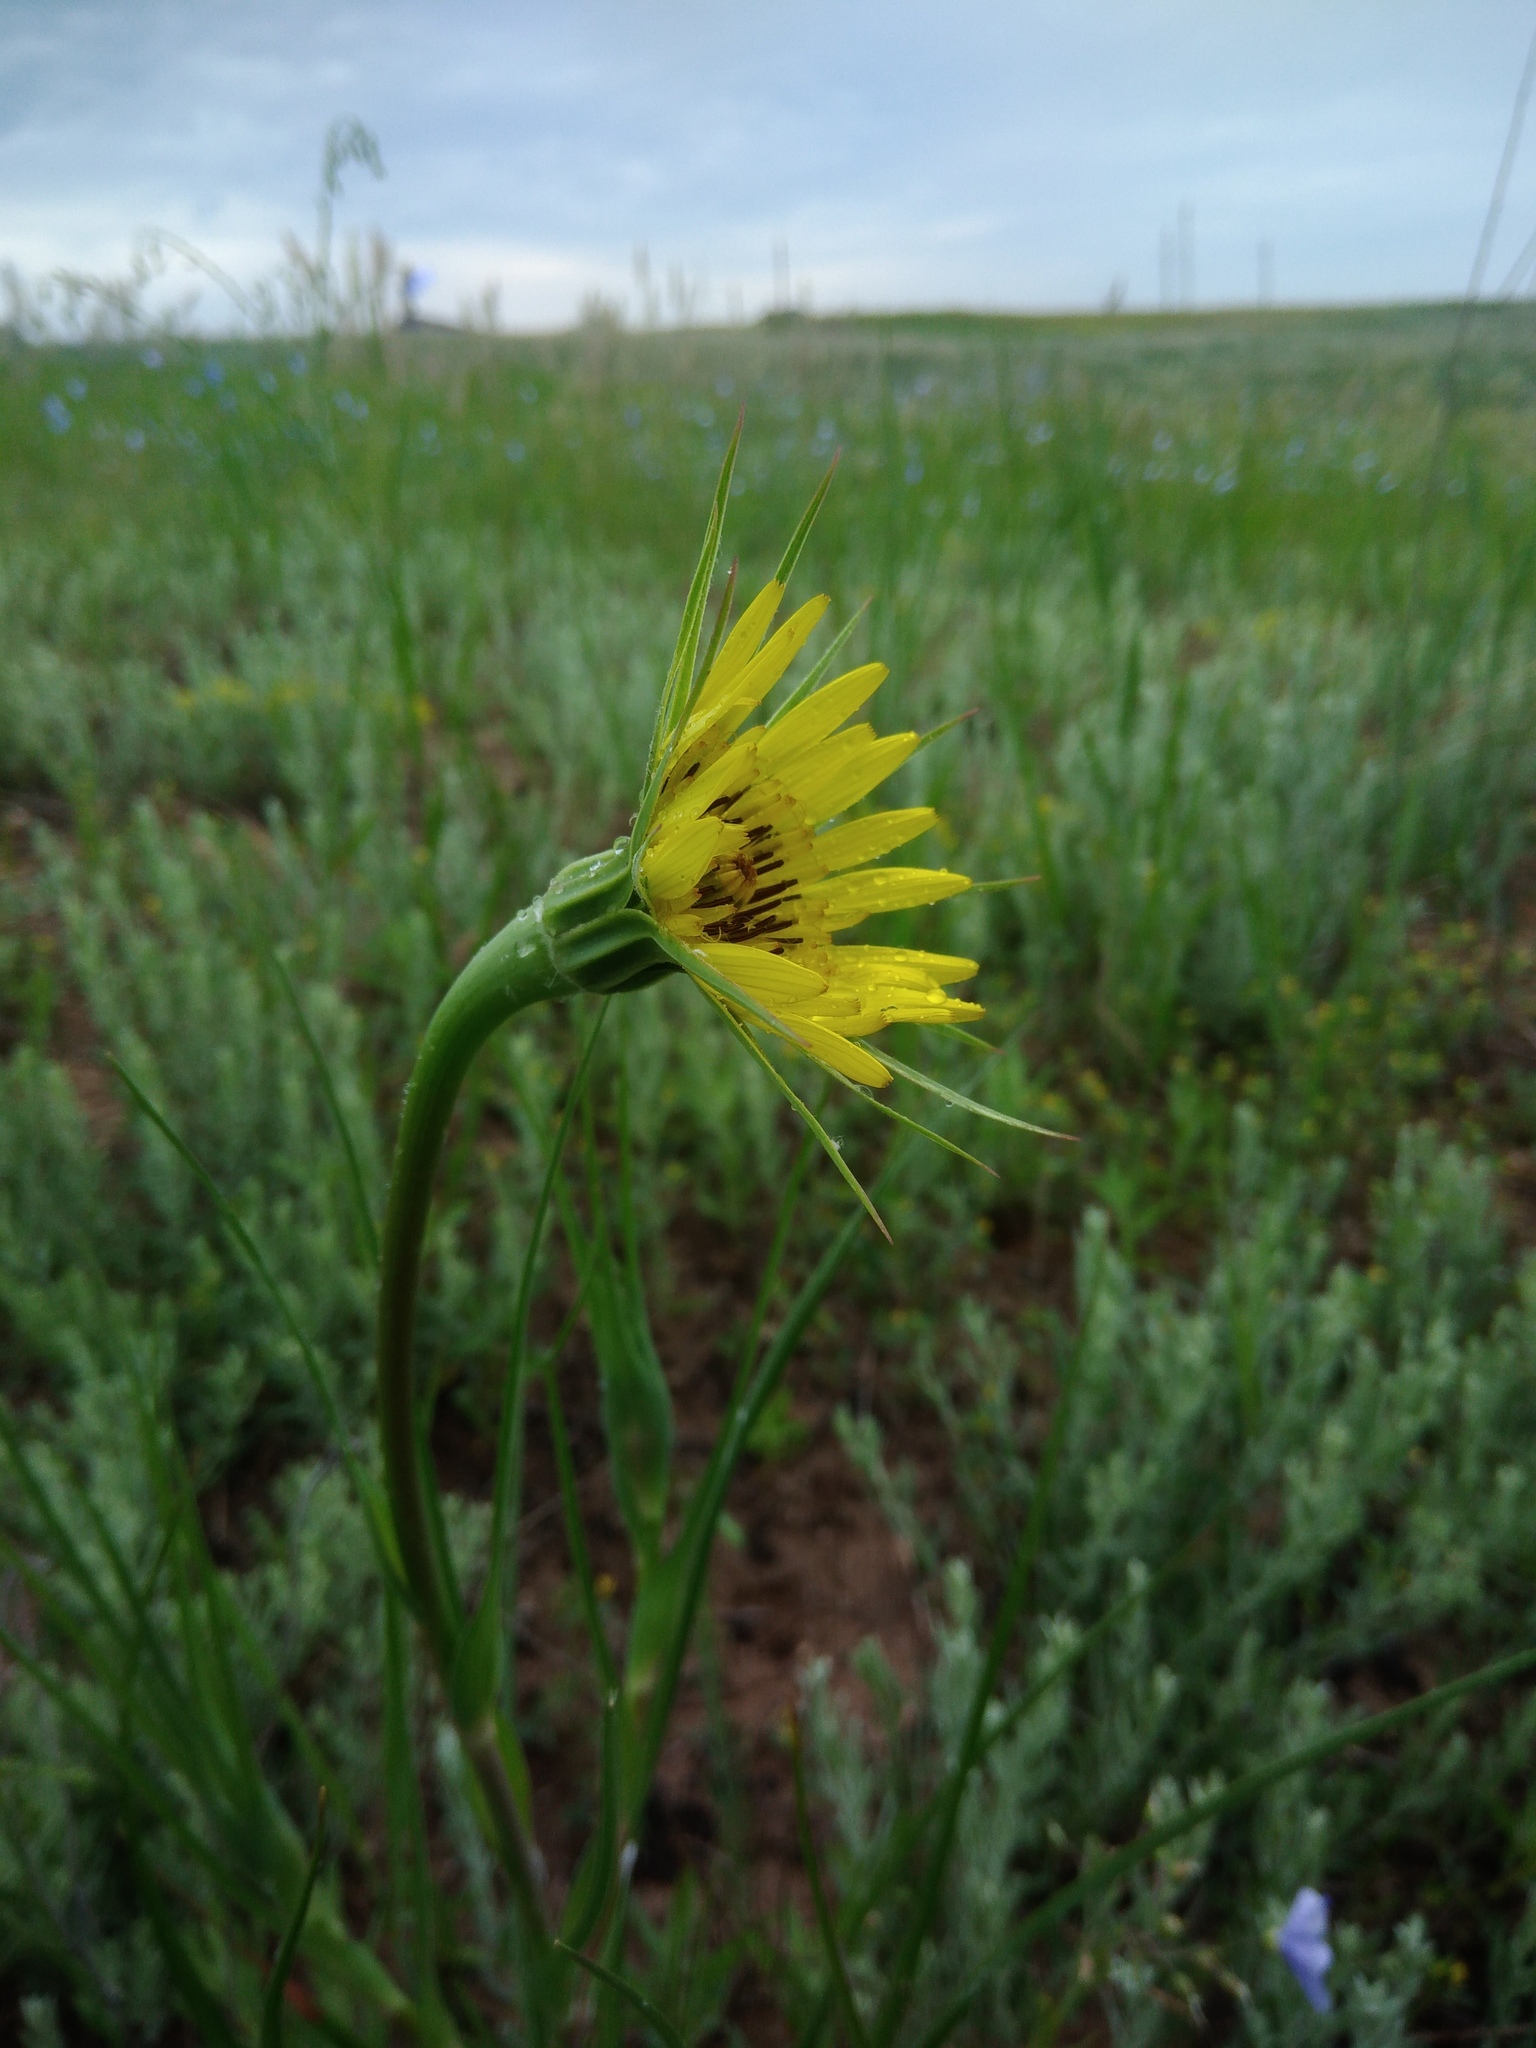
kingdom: Plantae
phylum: Tracheophyta
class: Magnoliopsida
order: Asterales
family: Asteraceae
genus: Tragopogon
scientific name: Tragopogon dubius
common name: Yellow salsify
